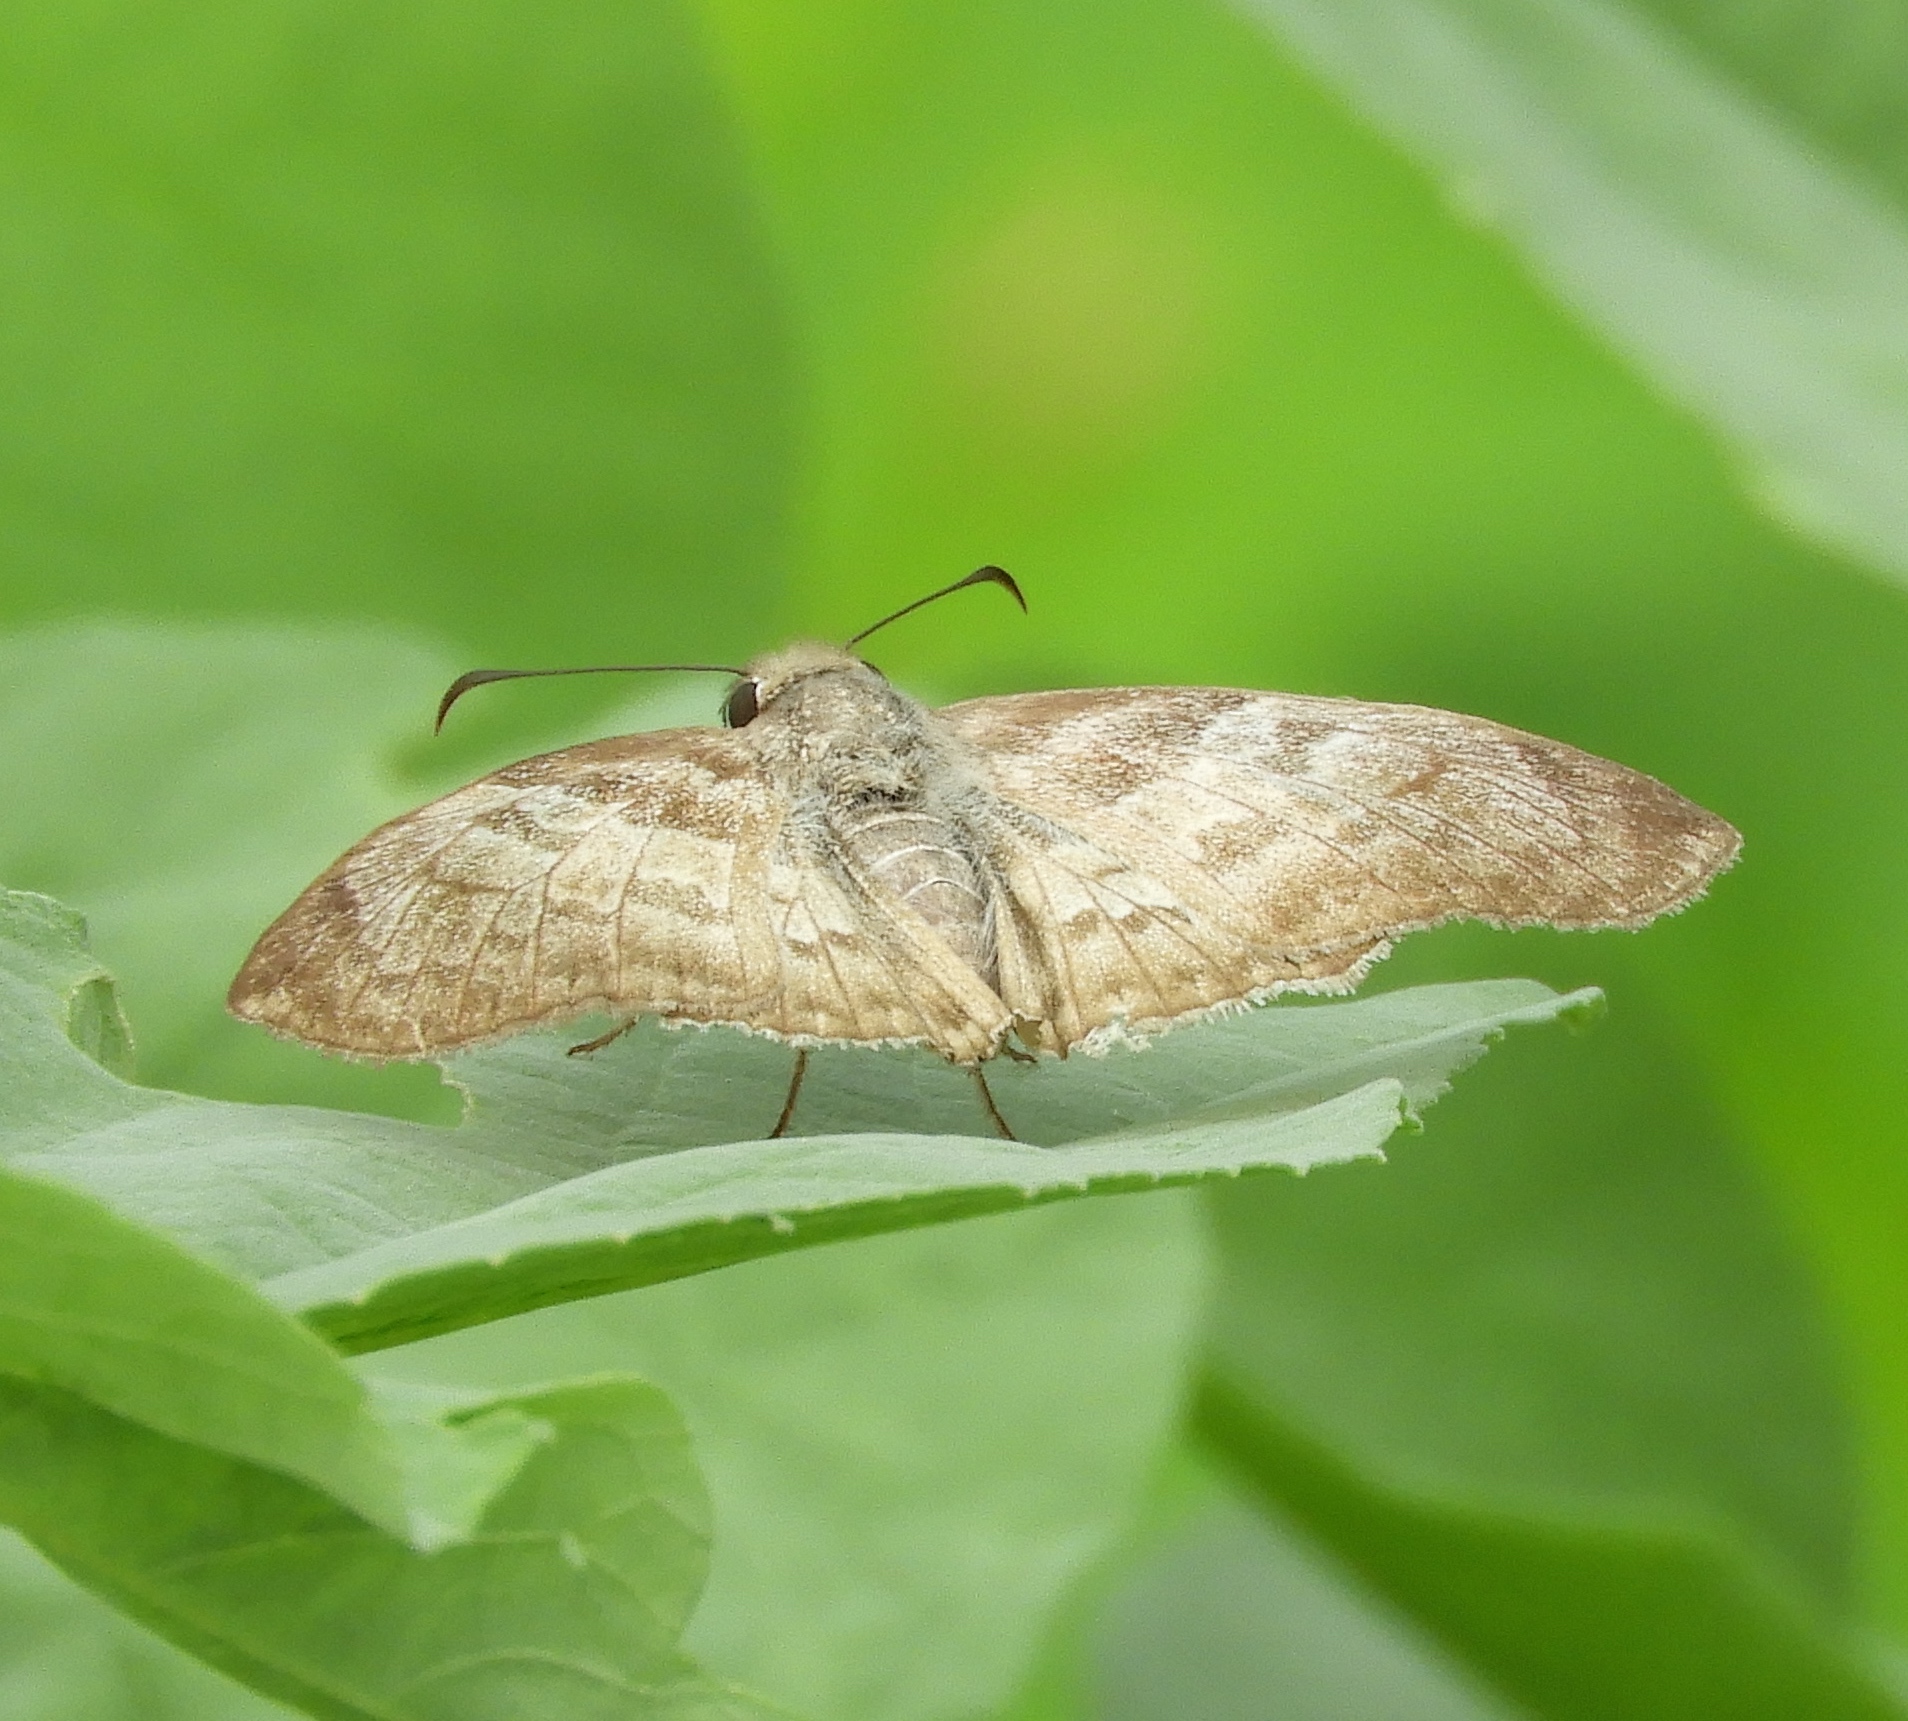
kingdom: Animalia
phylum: Arthropoda
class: Insecta
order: Lepidoptera
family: Hesperiidae
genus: Mylon
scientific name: Mylon pelopidas
